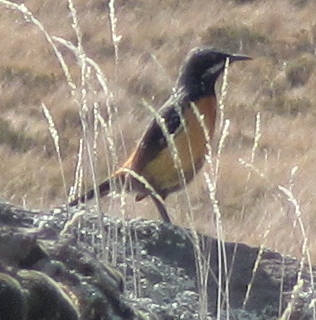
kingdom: Animalia
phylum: Chordata
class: Aves
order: Passeriformes
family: Chaetopidae
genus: Chaetops
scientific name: Chaetops aurantius
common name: Drakensberg rockjumper
